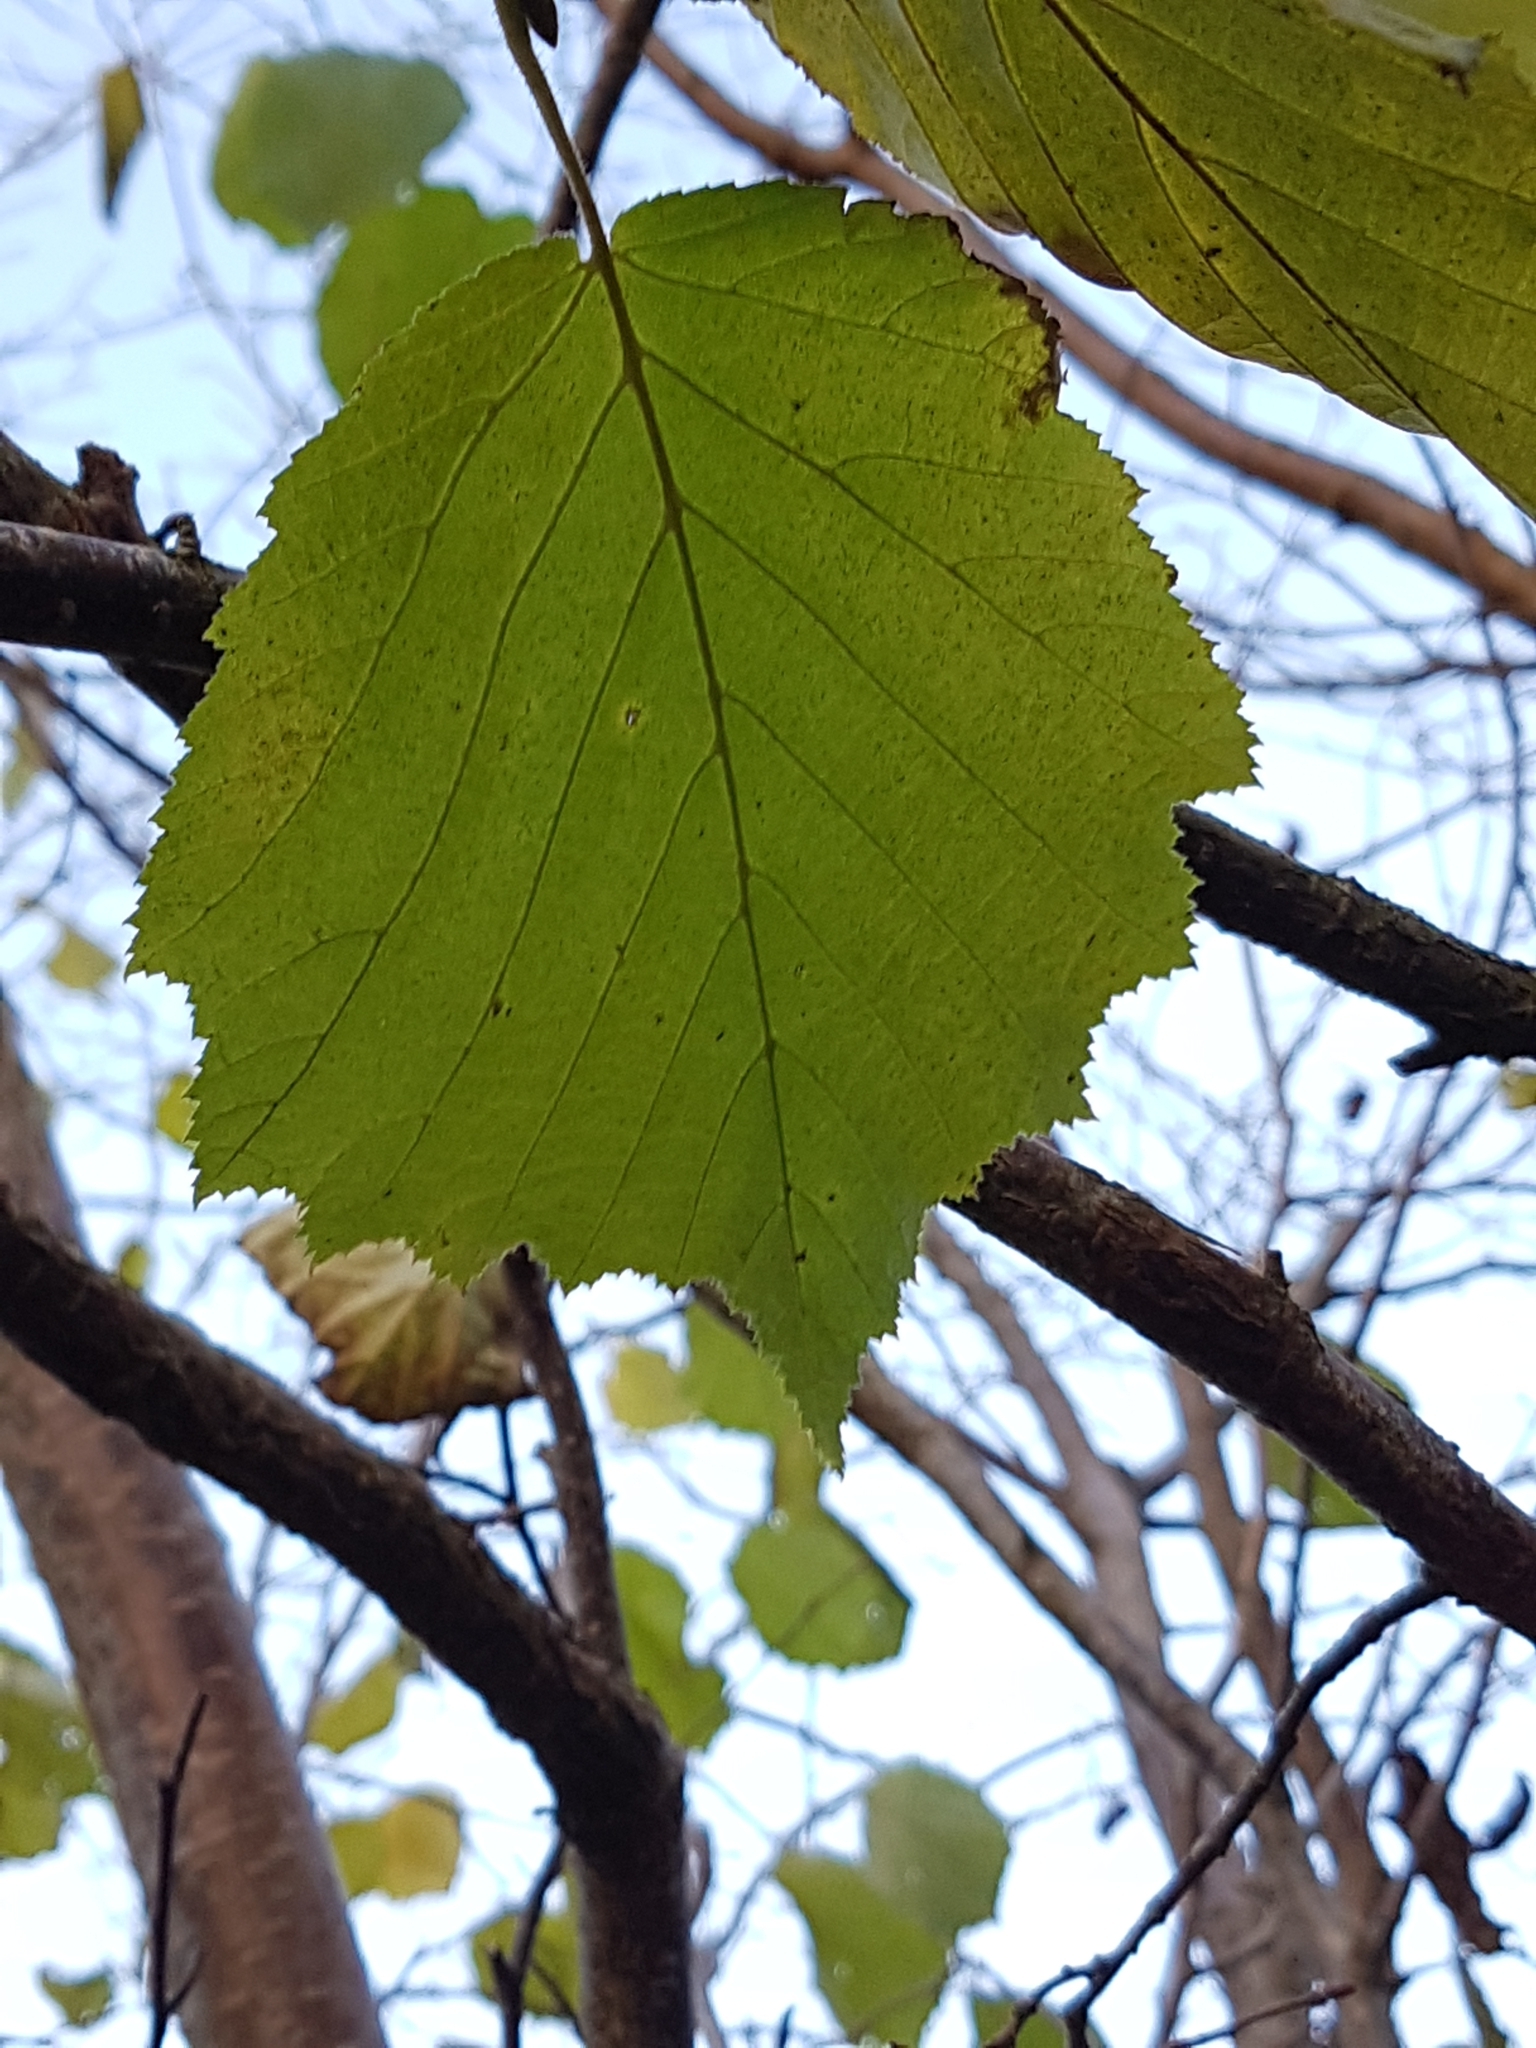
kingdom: Plantae
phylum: Tracheophyta
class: Magnoliopsida
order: Fagales
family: Betulaceae
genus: Corylus
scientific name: Corylus avellana
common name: European hazel
